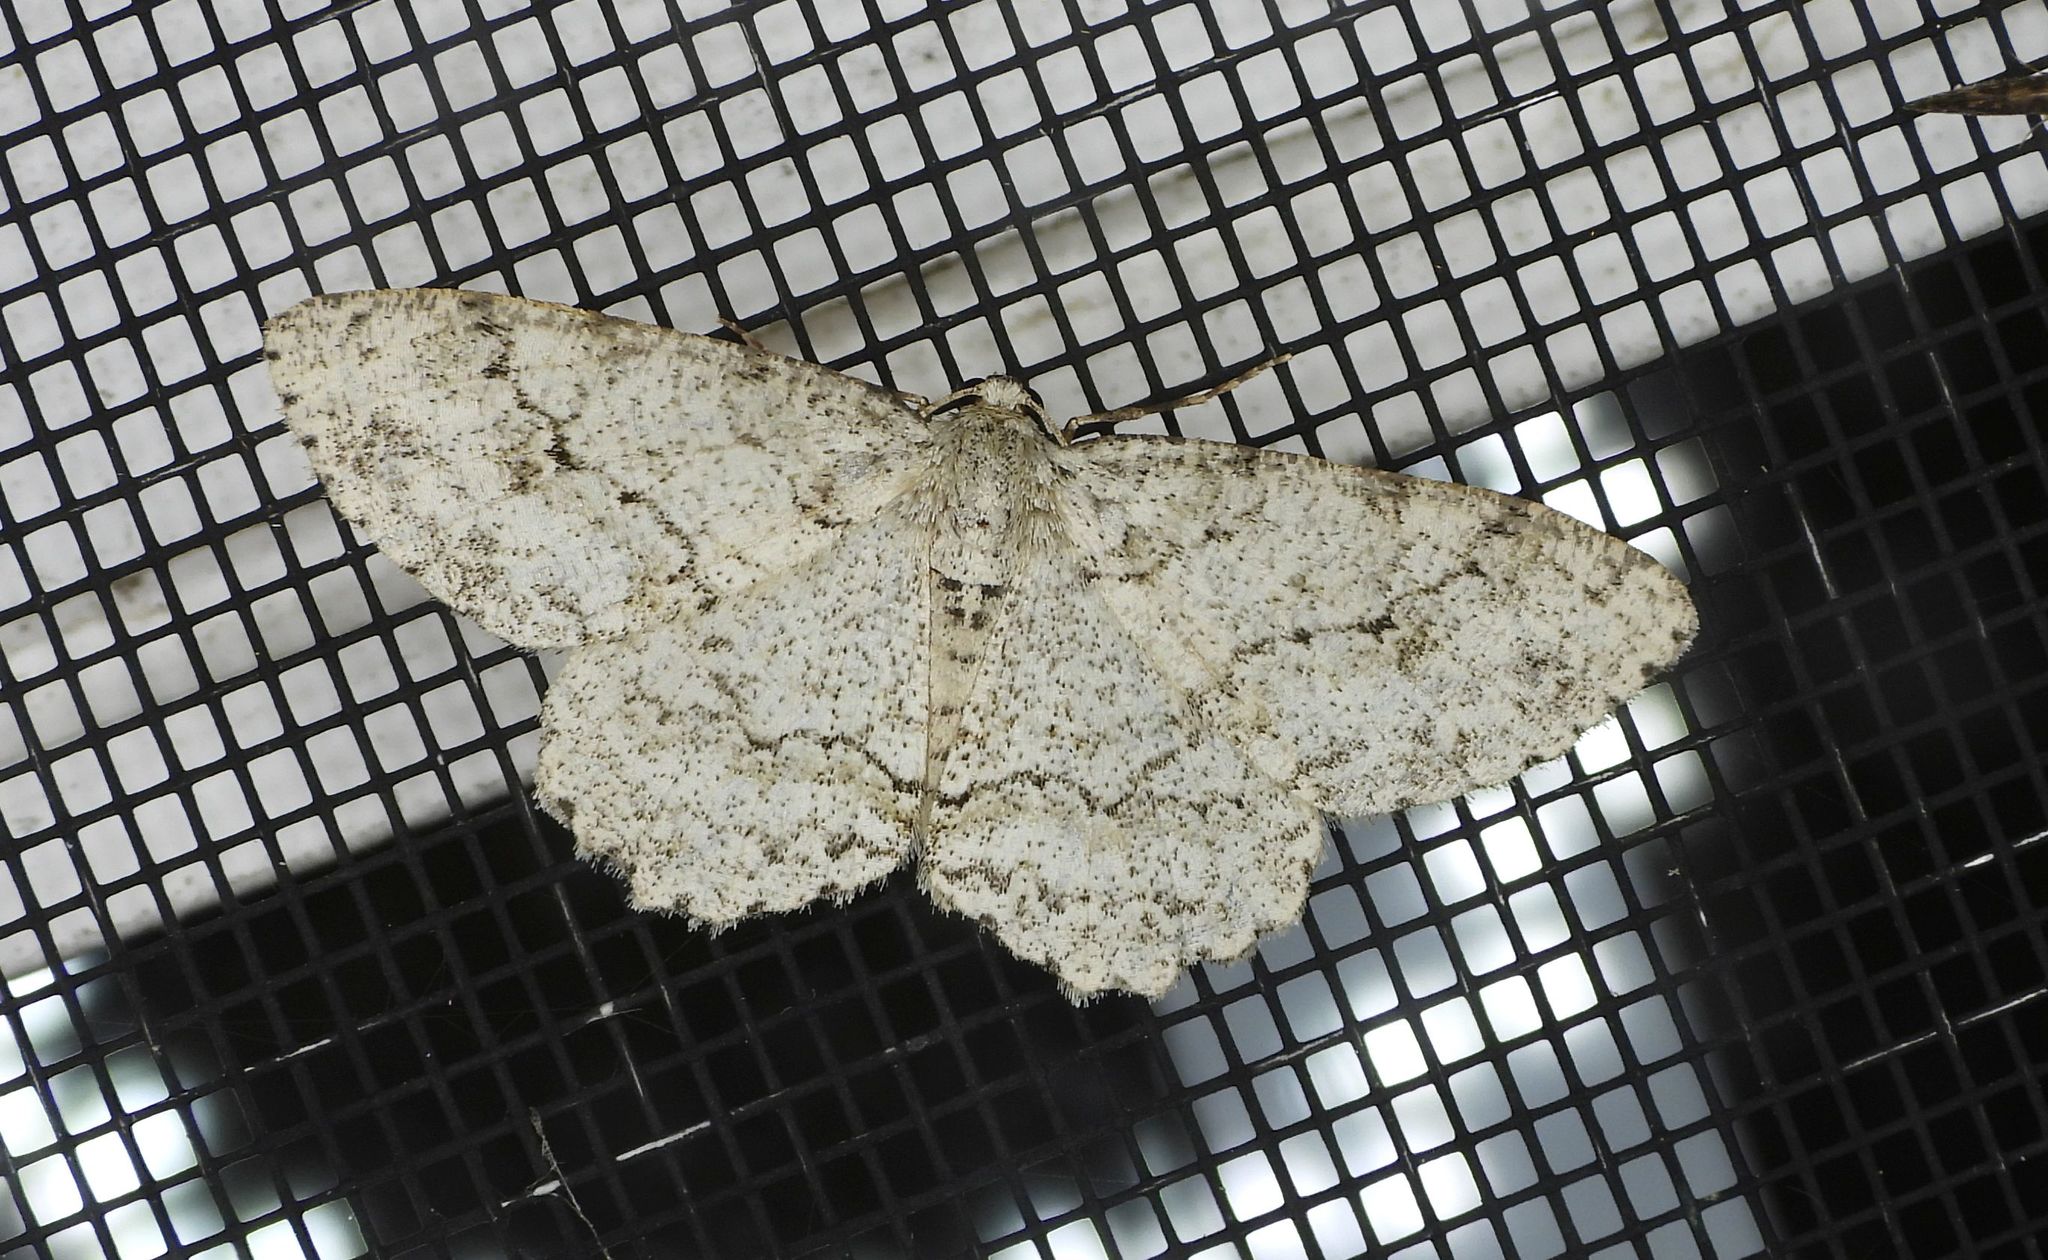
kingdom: Animalia
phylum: Arthropoda
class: Insecta
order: Lepidoptera
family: Geometridae
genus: Ectropis
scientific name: Ectropis crepuscularia
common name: Engrailed
